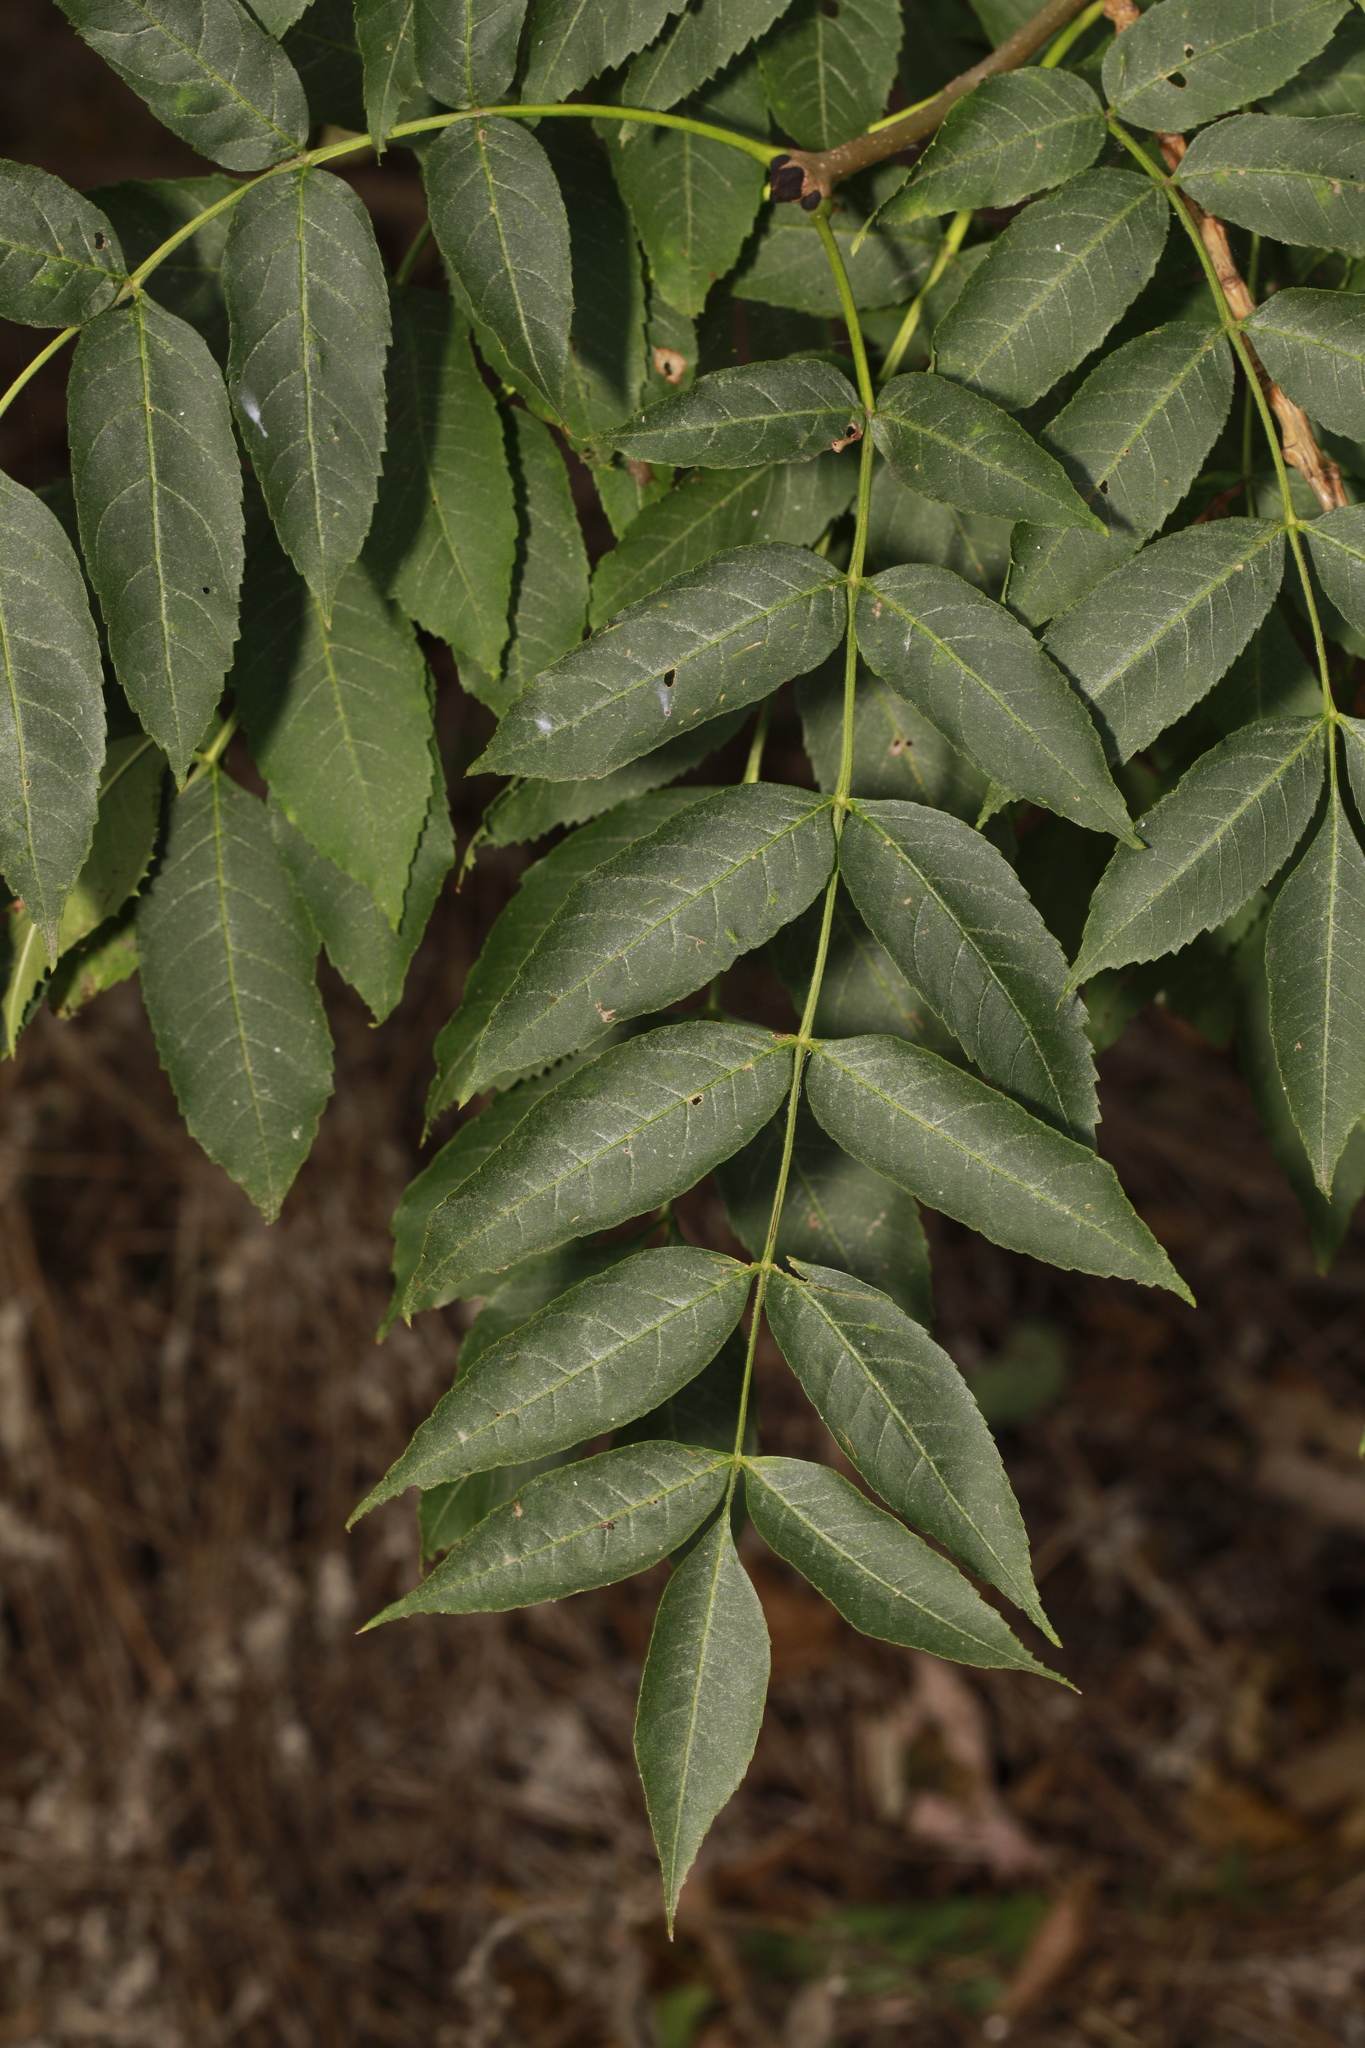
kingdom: Plantae
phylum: Tracheophyta
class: Magnoliopsida
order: Lamiales
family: Oleaceae
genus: Fraxinus
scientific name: Fraxinus excelsior
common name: European ash
